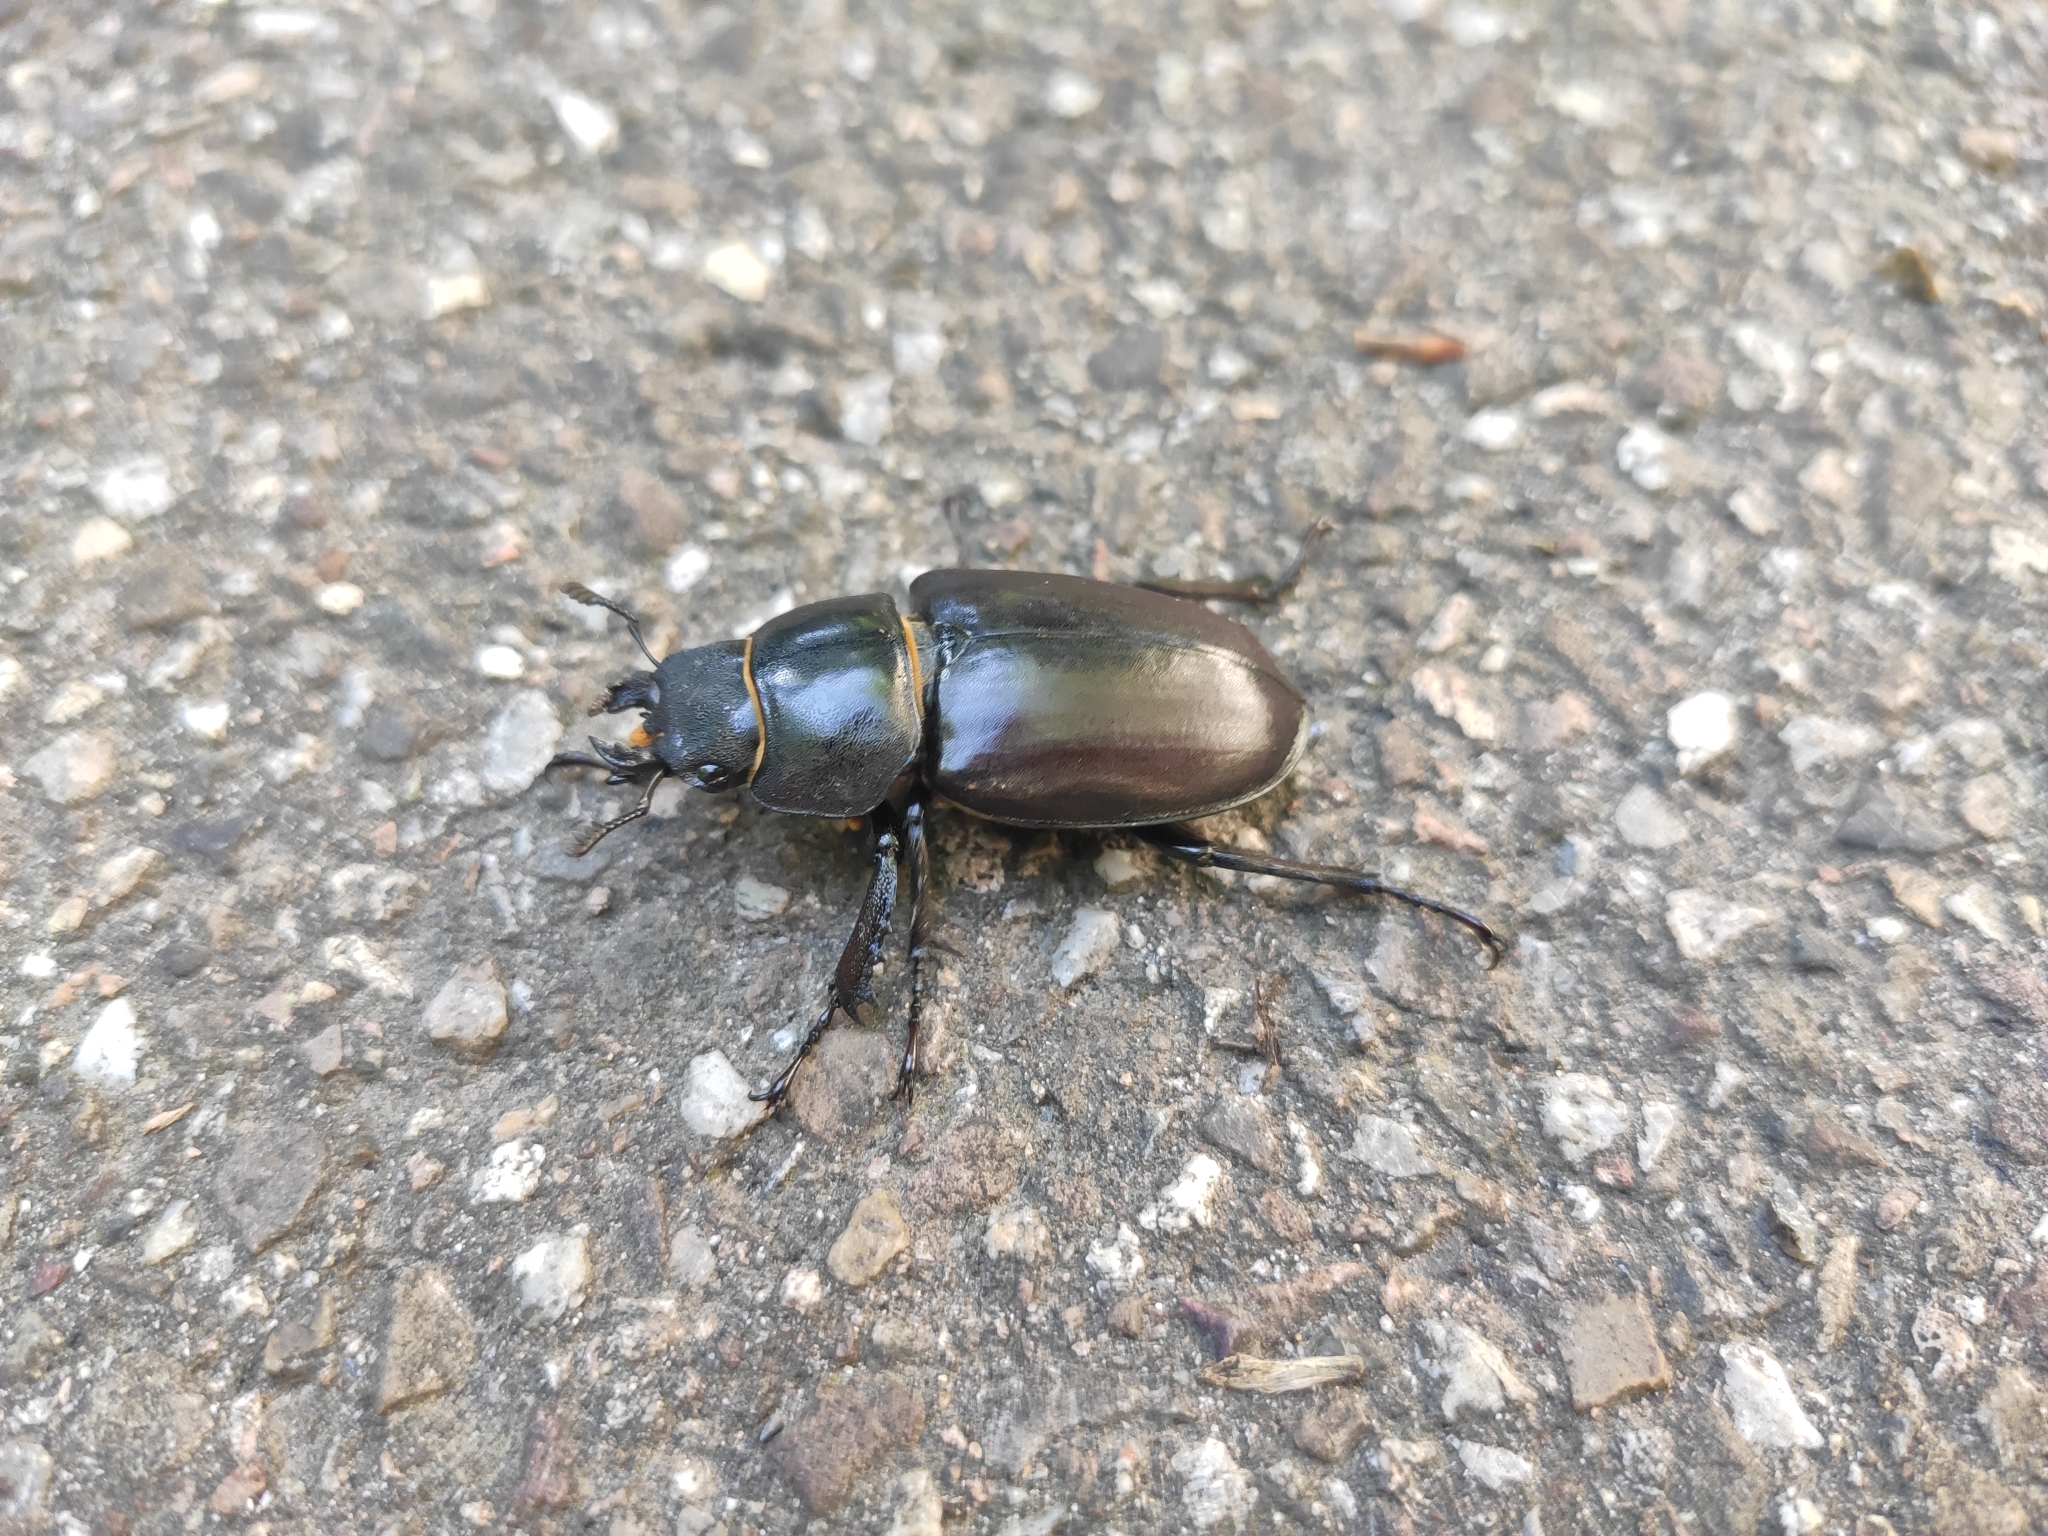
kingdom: Animalia
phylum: Arthropoda
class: Insecta
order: Coleoptera
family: Lucanidae
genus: Lucanus
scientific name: Lucanus cervus
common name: Stag beetle
